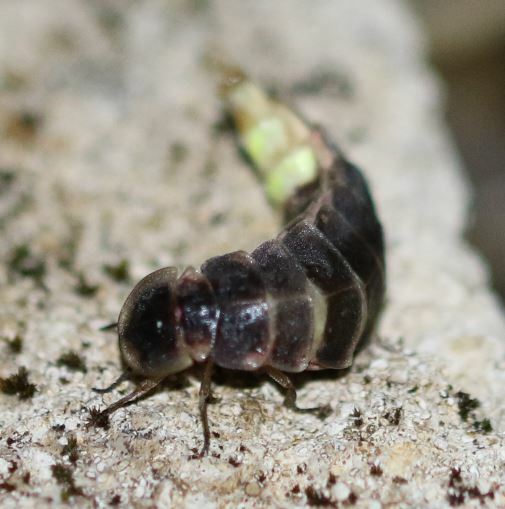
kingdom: Animalia
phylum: Arthropoda
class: Insecta
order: Coleoptera
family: Lampyridae
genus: Lampyris
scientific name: Lampyris noctiluca
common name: Glow-worm
